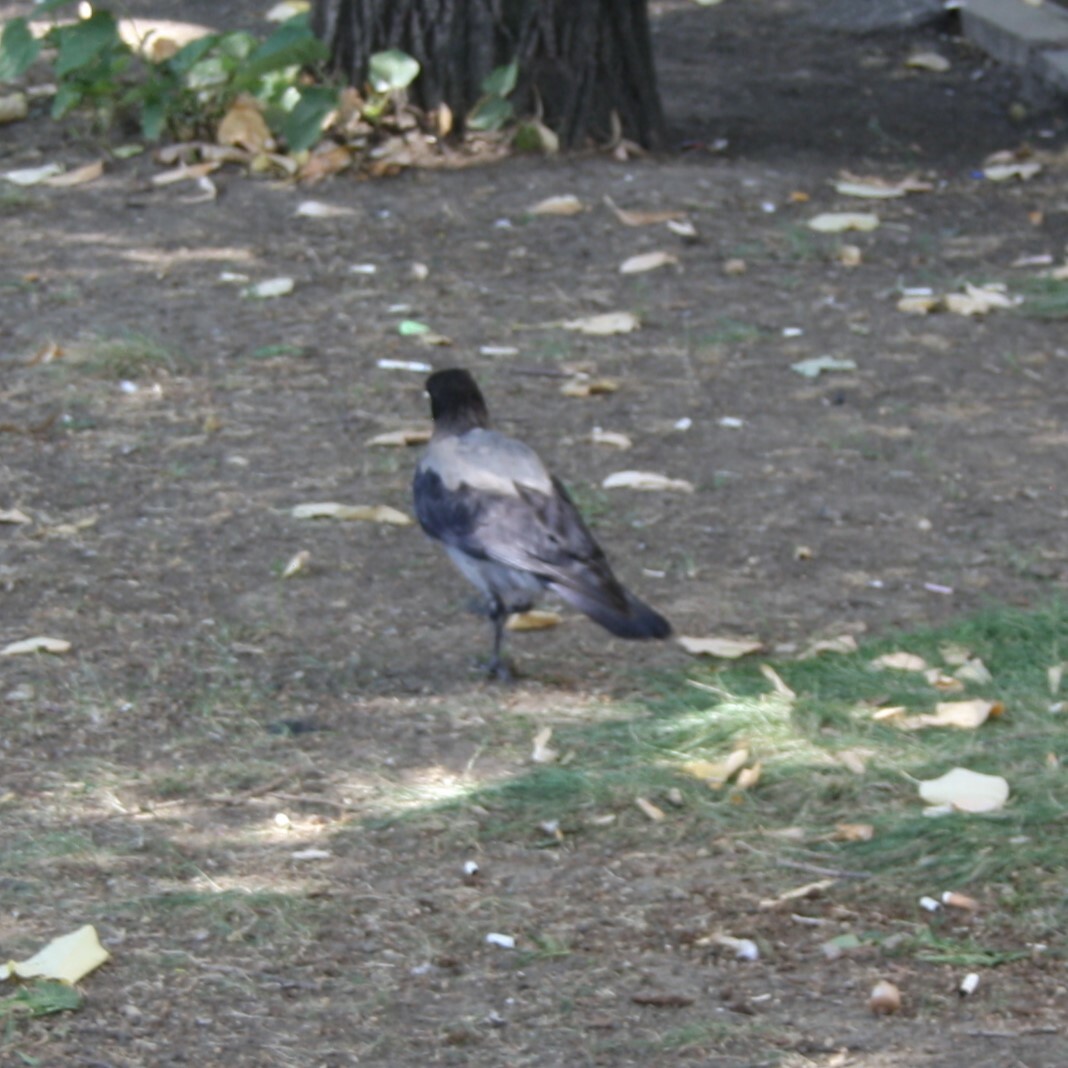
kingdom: Animalia
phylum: Chordata
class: Aves
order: Passeriformes
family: Corvidae
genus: Corvus
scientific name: Corvus cornix
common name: Hooded crow
